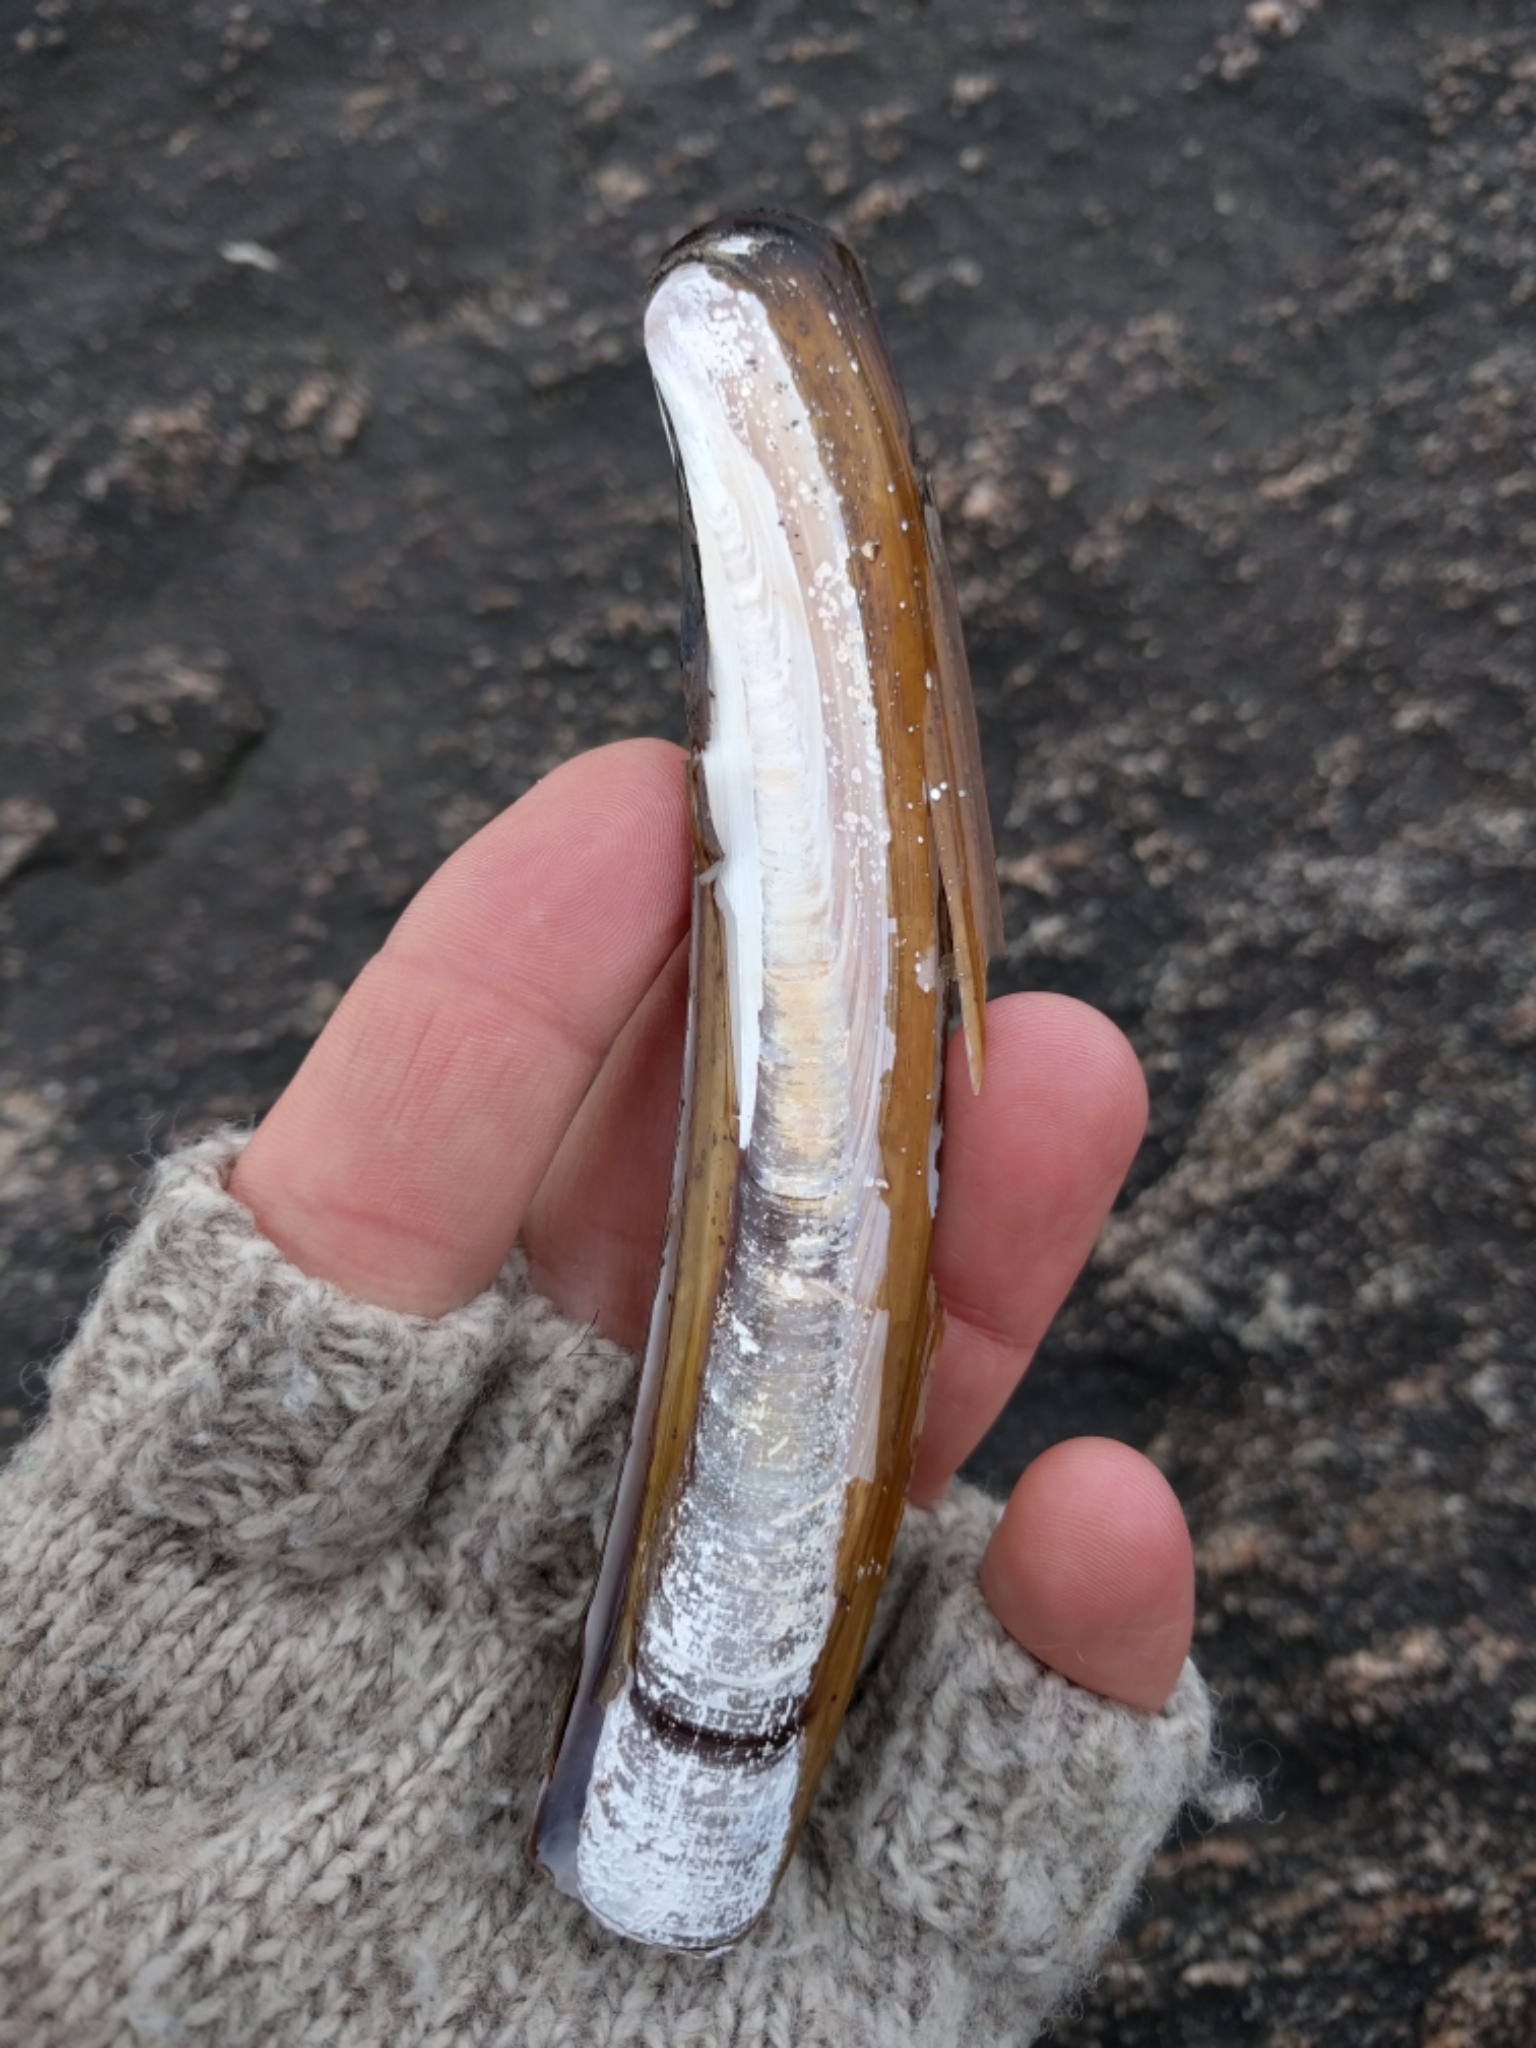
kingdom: Animalia
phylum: Mollusca
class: Bivalvia
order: Adapedonta
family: Pharidae
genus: Ensis
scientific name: Ensis leei
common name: American jack knife clam
